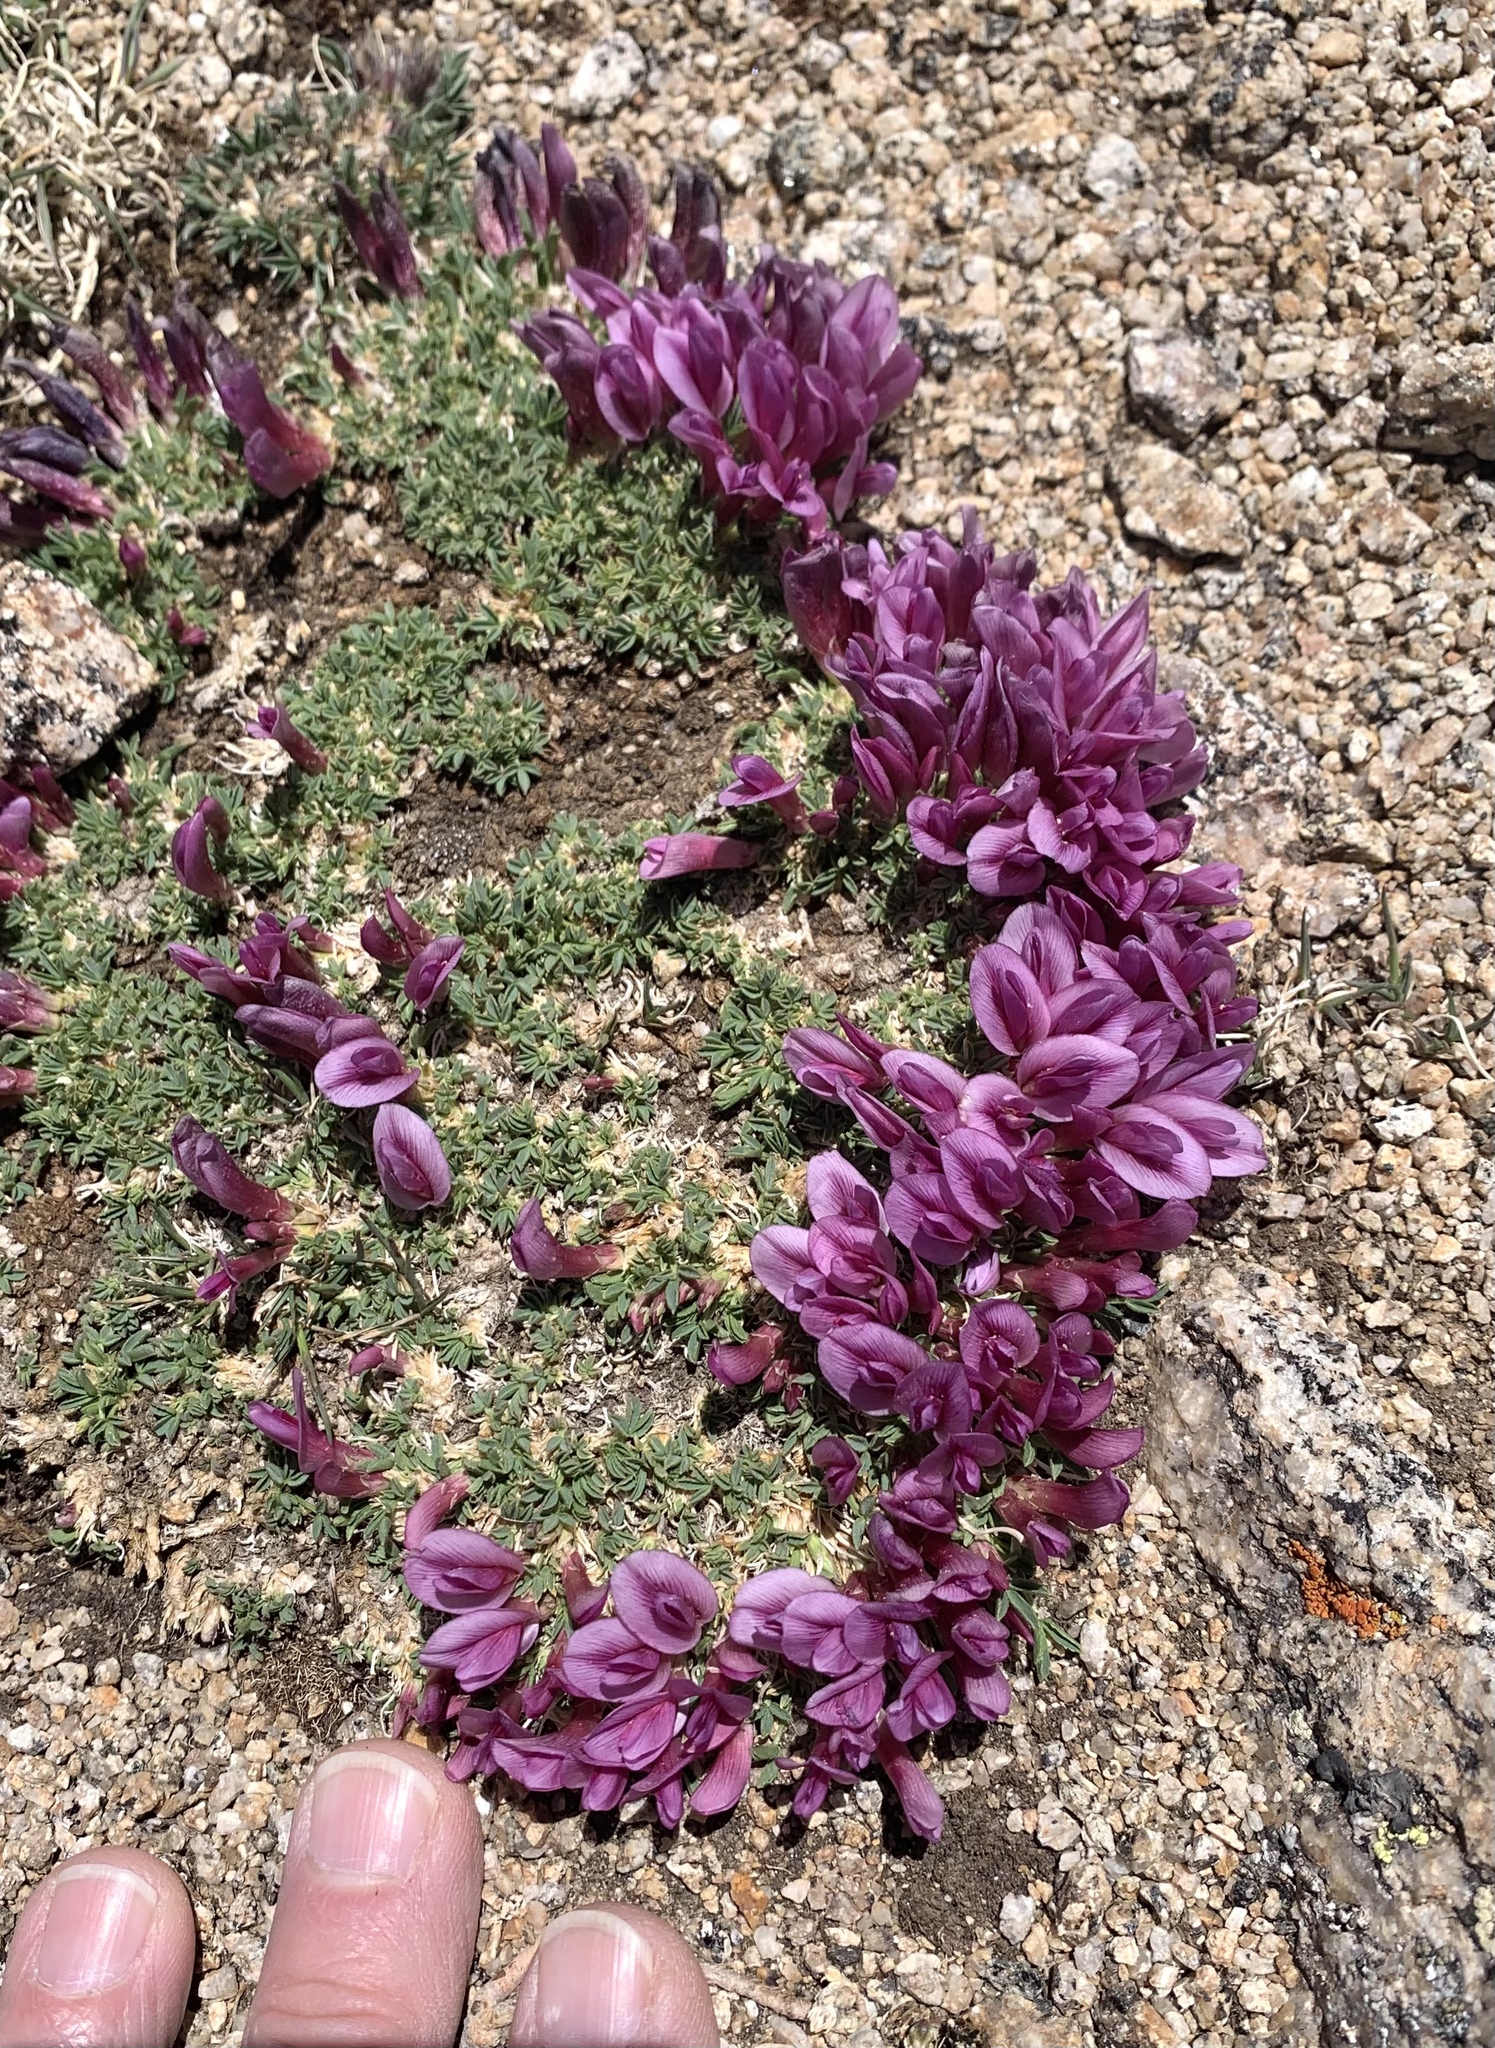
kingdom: Plantae
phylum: Tracheophyta
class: Magnoliopsida
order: Fabales
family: Fabaceae
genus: Trifolium
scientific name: Trifolium nanum
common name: Tundra clover
